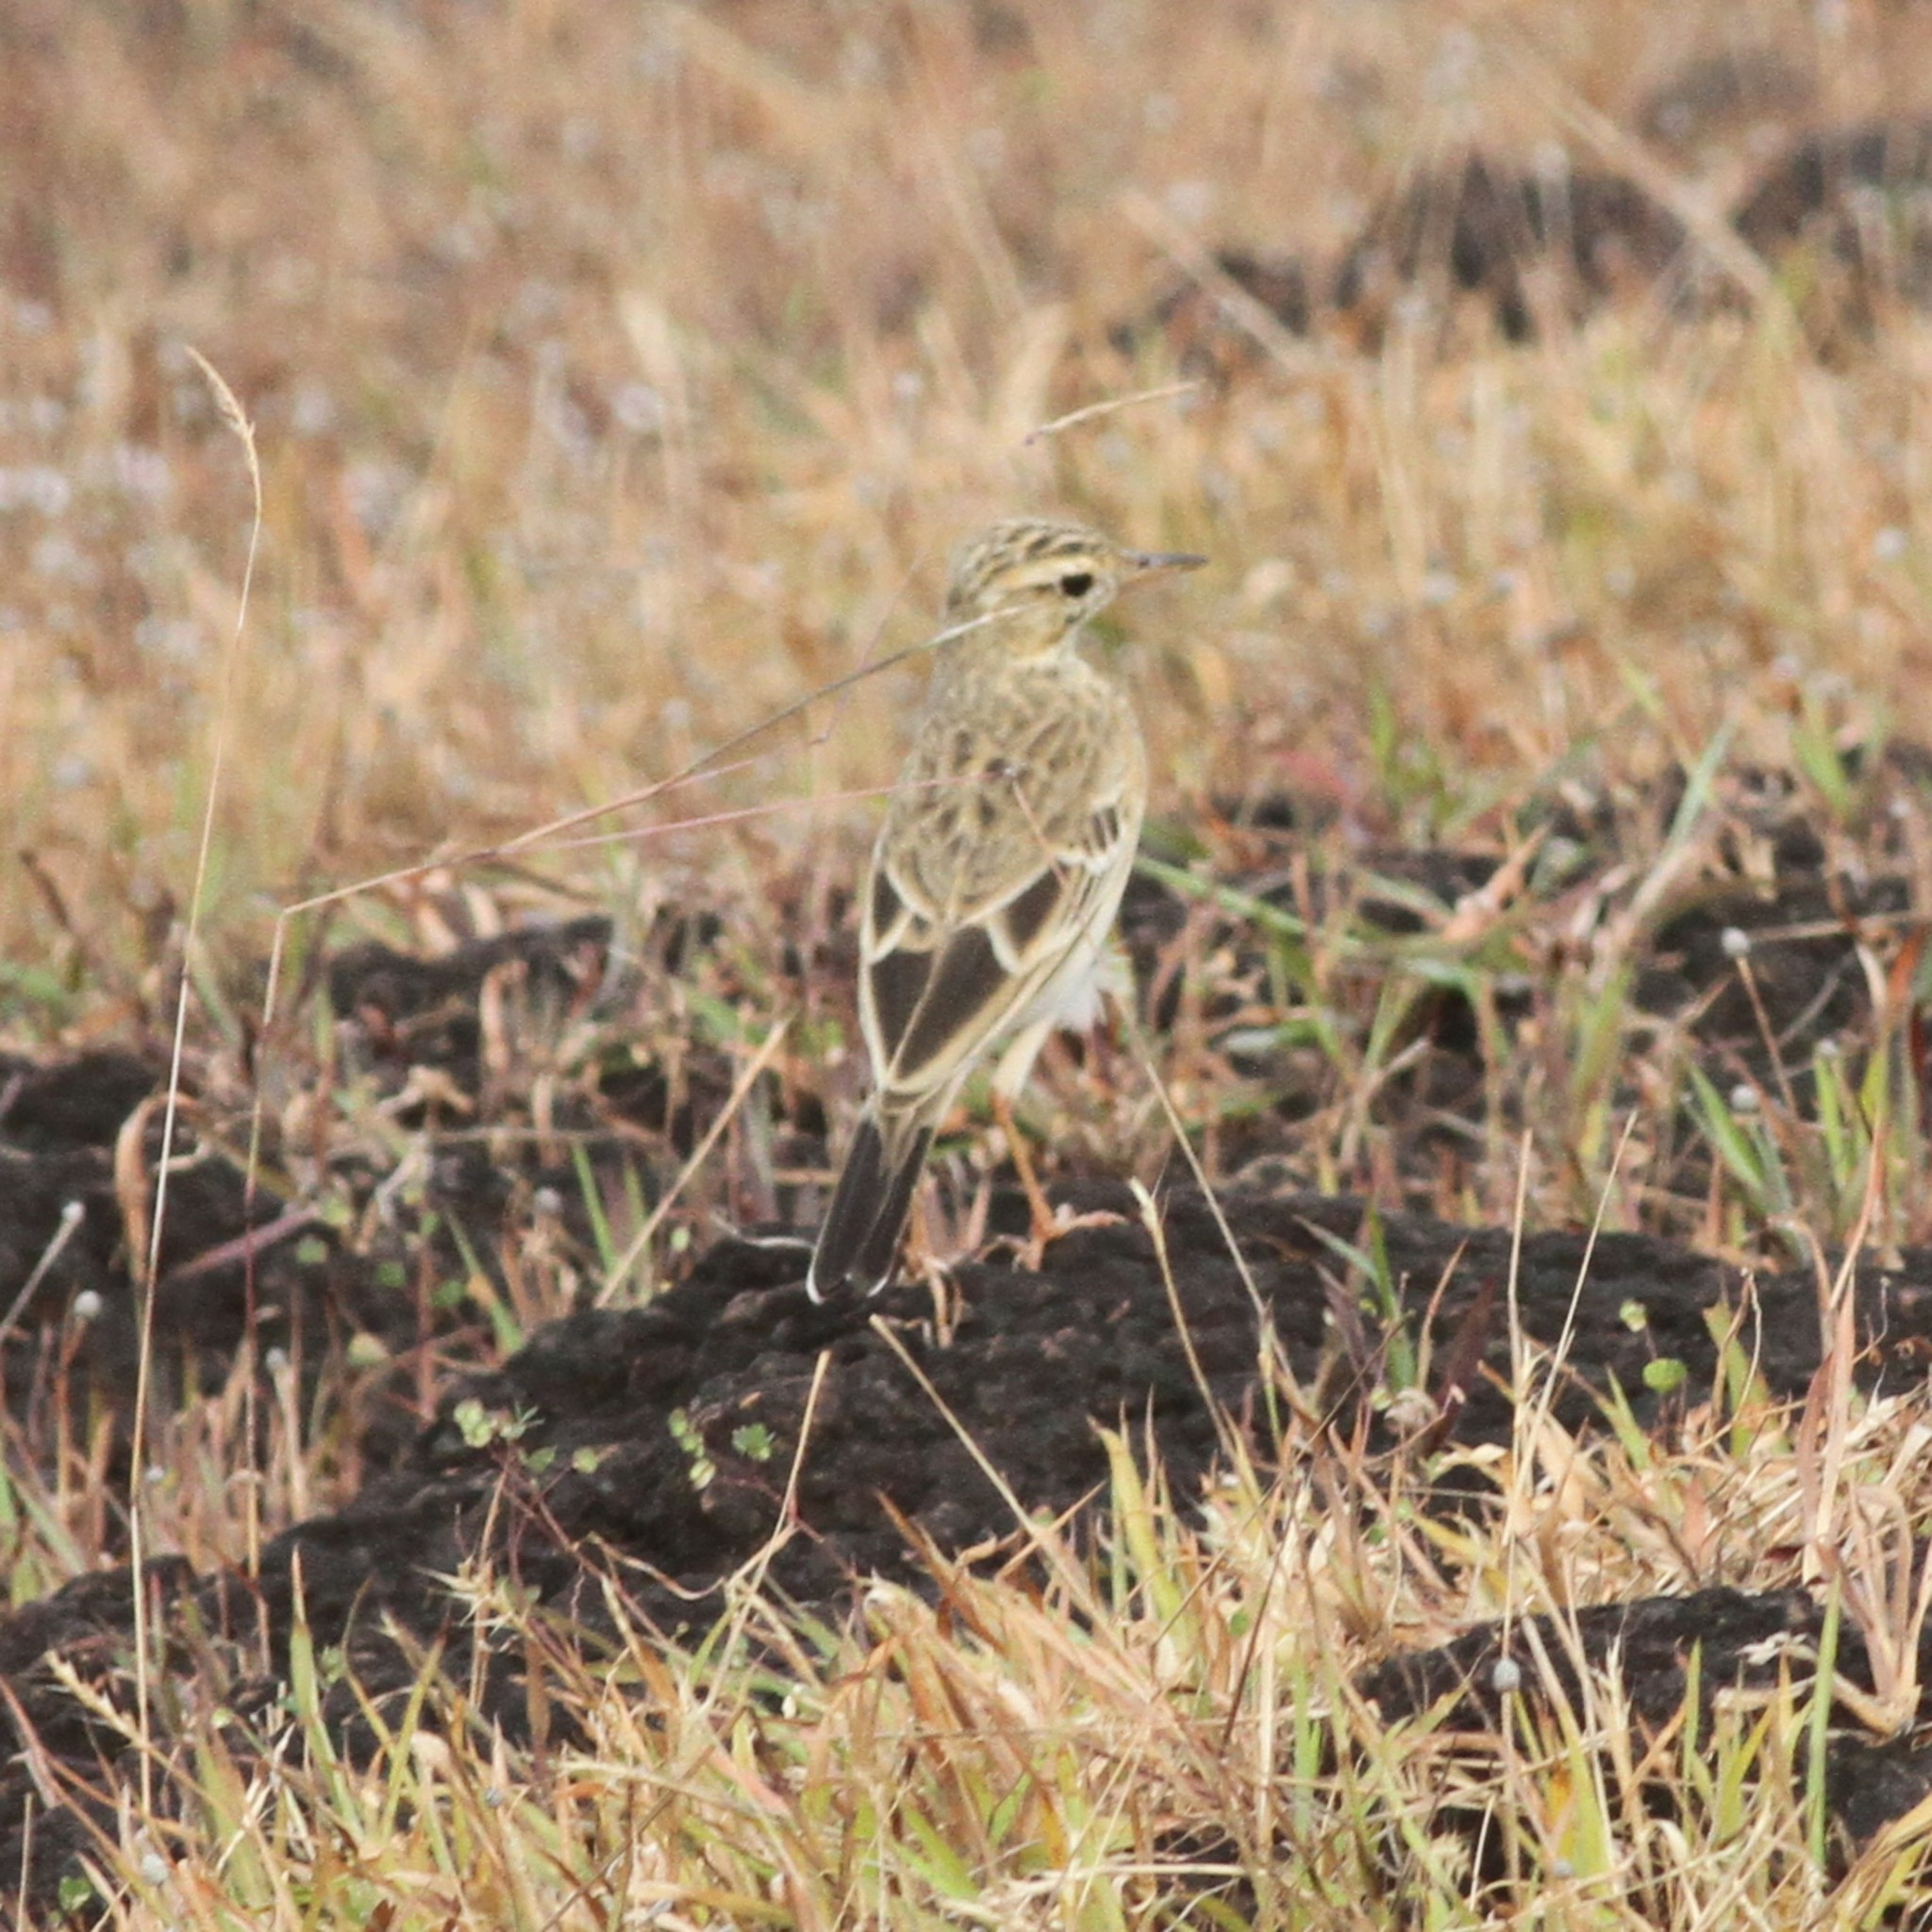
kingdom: Animalia
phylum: Chordata
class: Aves
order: Passeriformes
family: Motacillidae
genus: Anthus
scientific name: Anthus rufulus
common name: Paddyfield pipit
